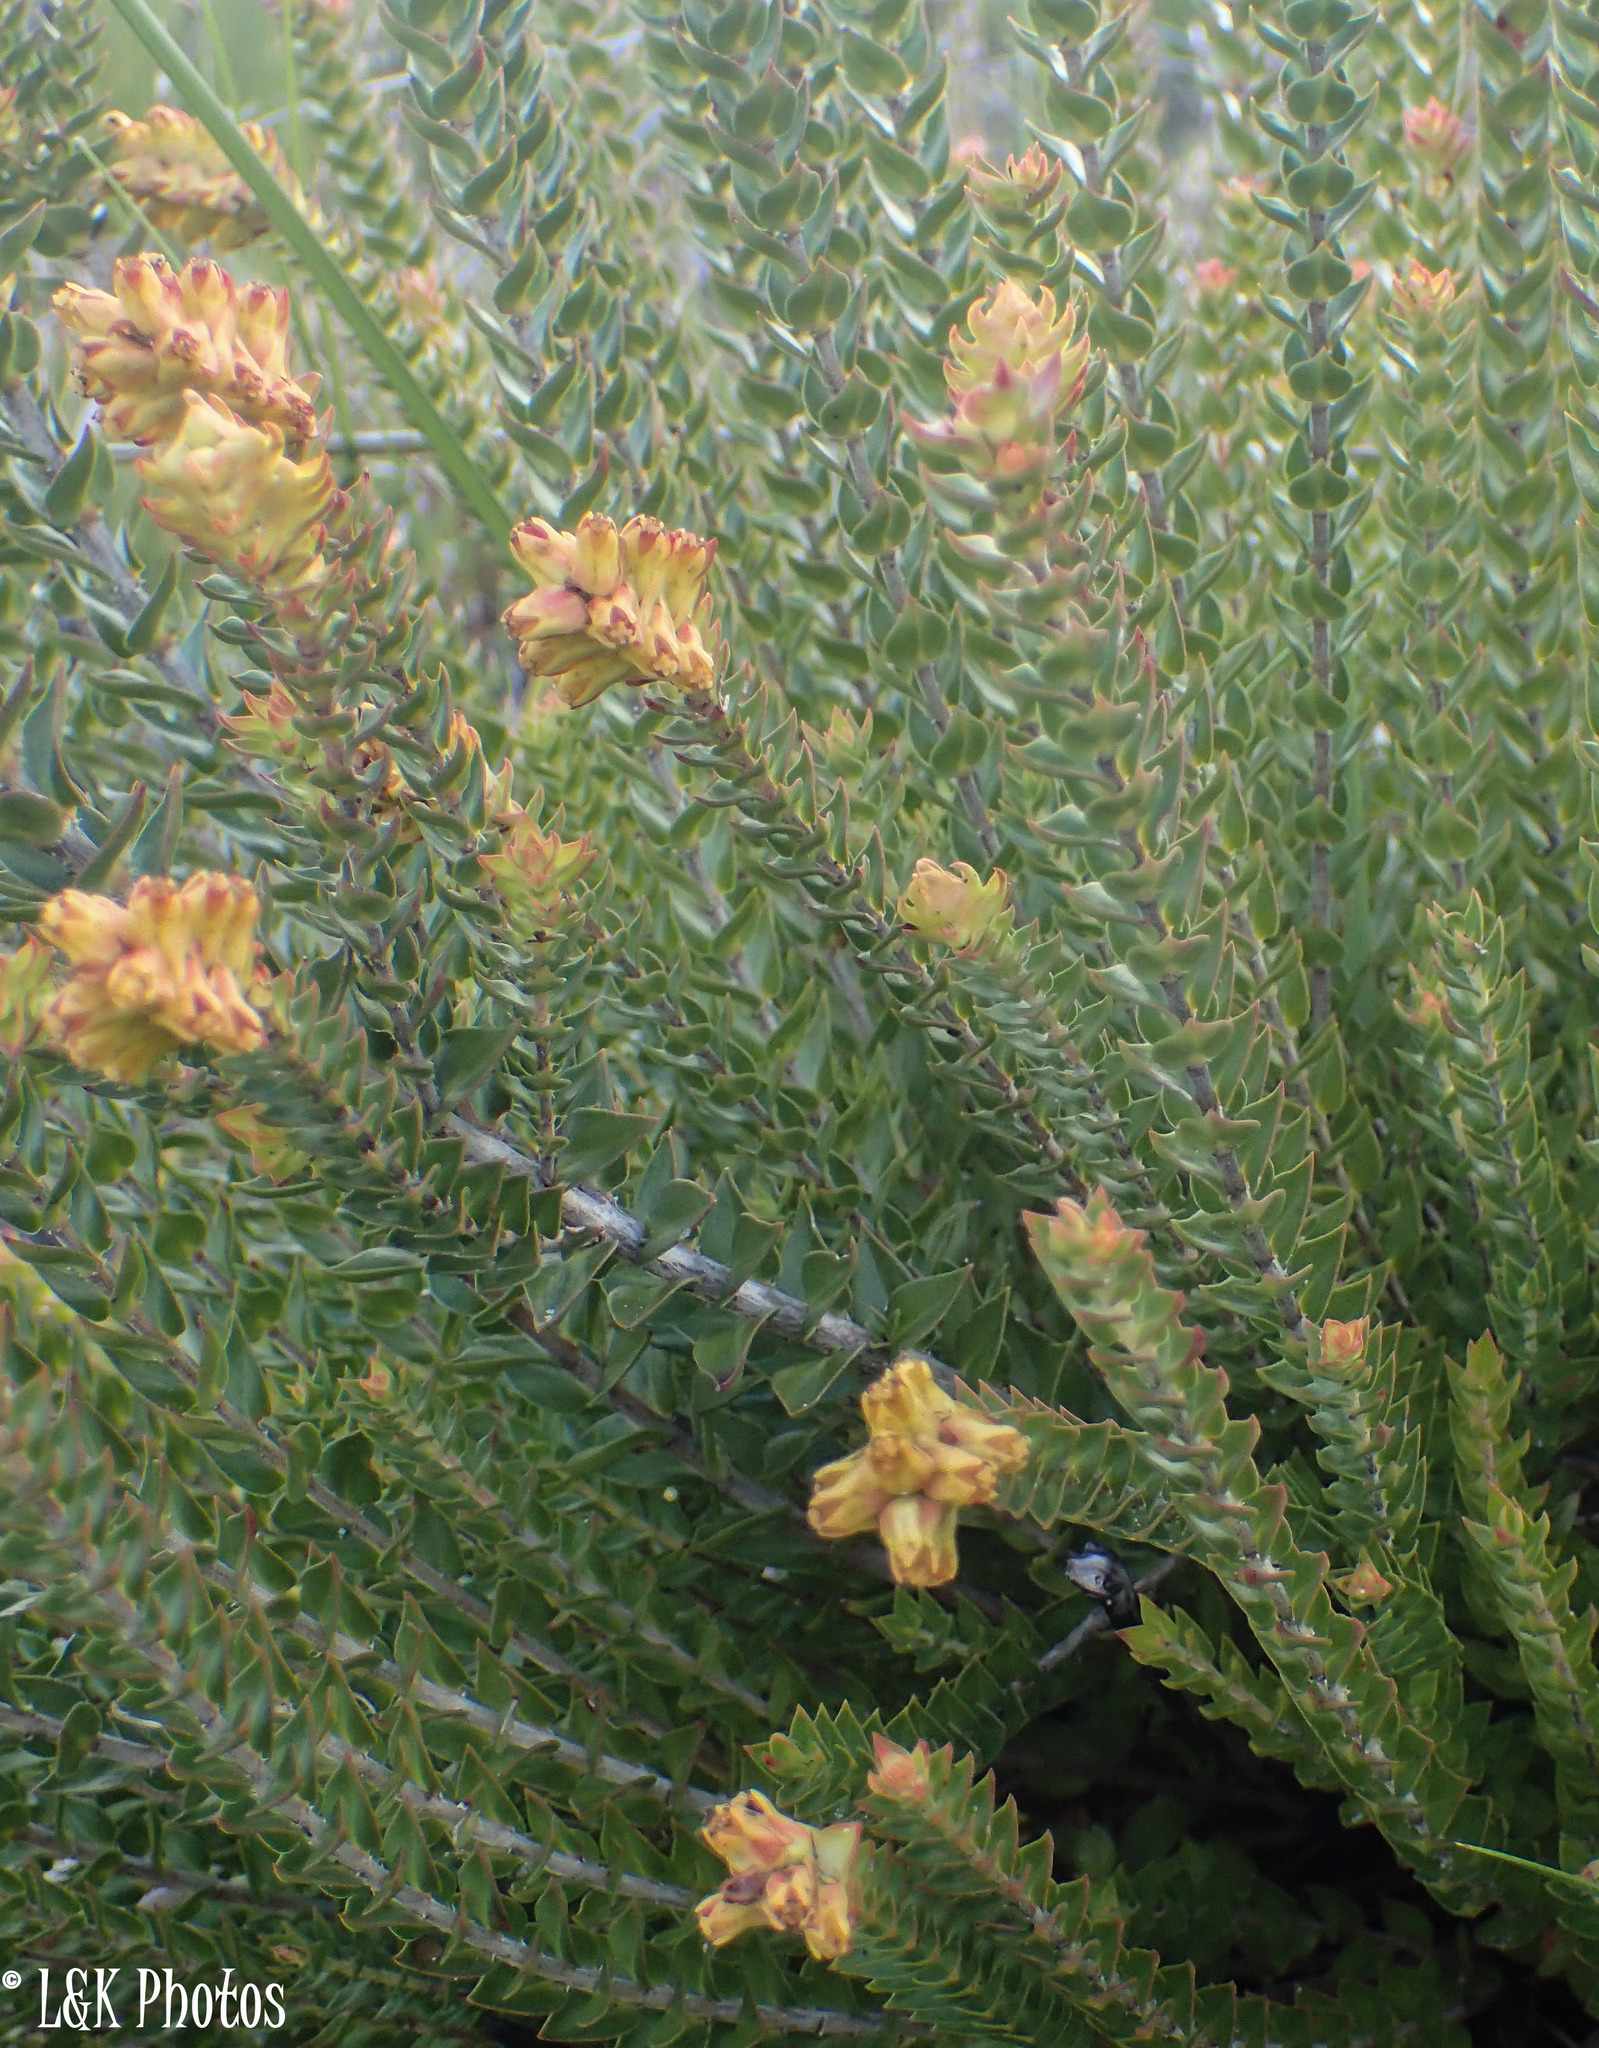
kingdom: Plantae
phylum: Tracheophyta
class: Magnoliopsida
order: Myrtales
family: Penaeaceae
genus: Penaea
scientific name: Penaea mucronata
